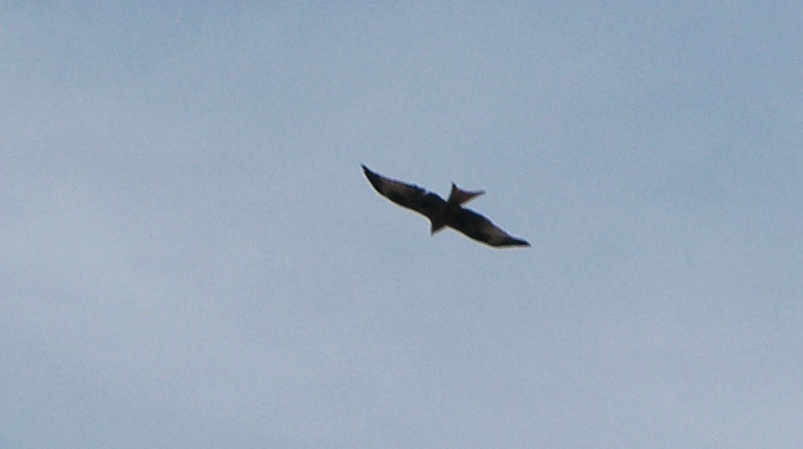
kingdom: Animalia
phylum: Chordata
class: Aves
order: Accipitriformes
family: Accipitridae
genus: Milvus
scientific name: Milvus milvus
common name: Red kite
